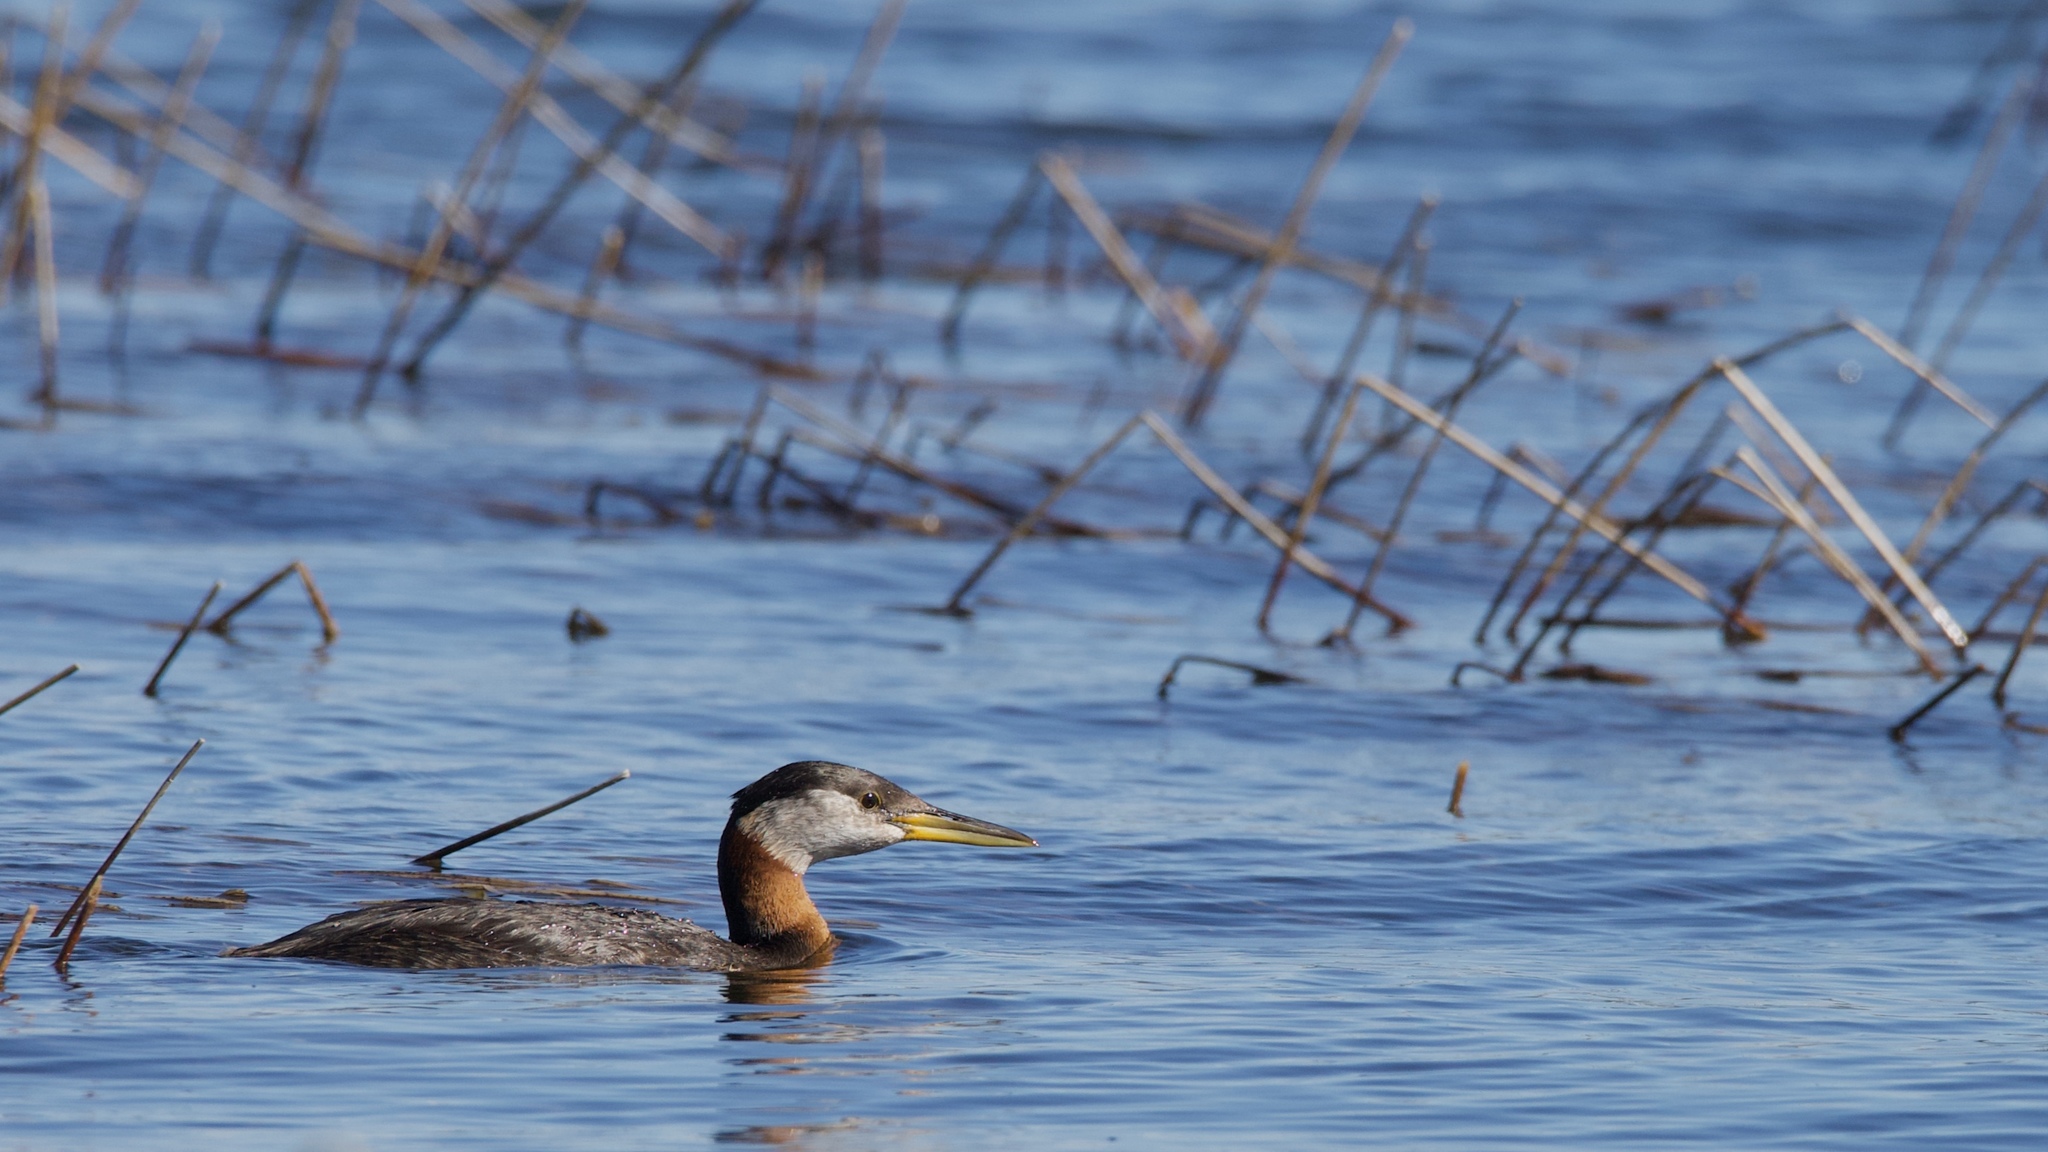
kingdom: Animalia
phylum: Chordata
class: Aves
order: Podicipediformes
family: Podicipedidae
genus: Podiceps
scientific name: Podiceps grisegena
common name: Red-necked grebe
